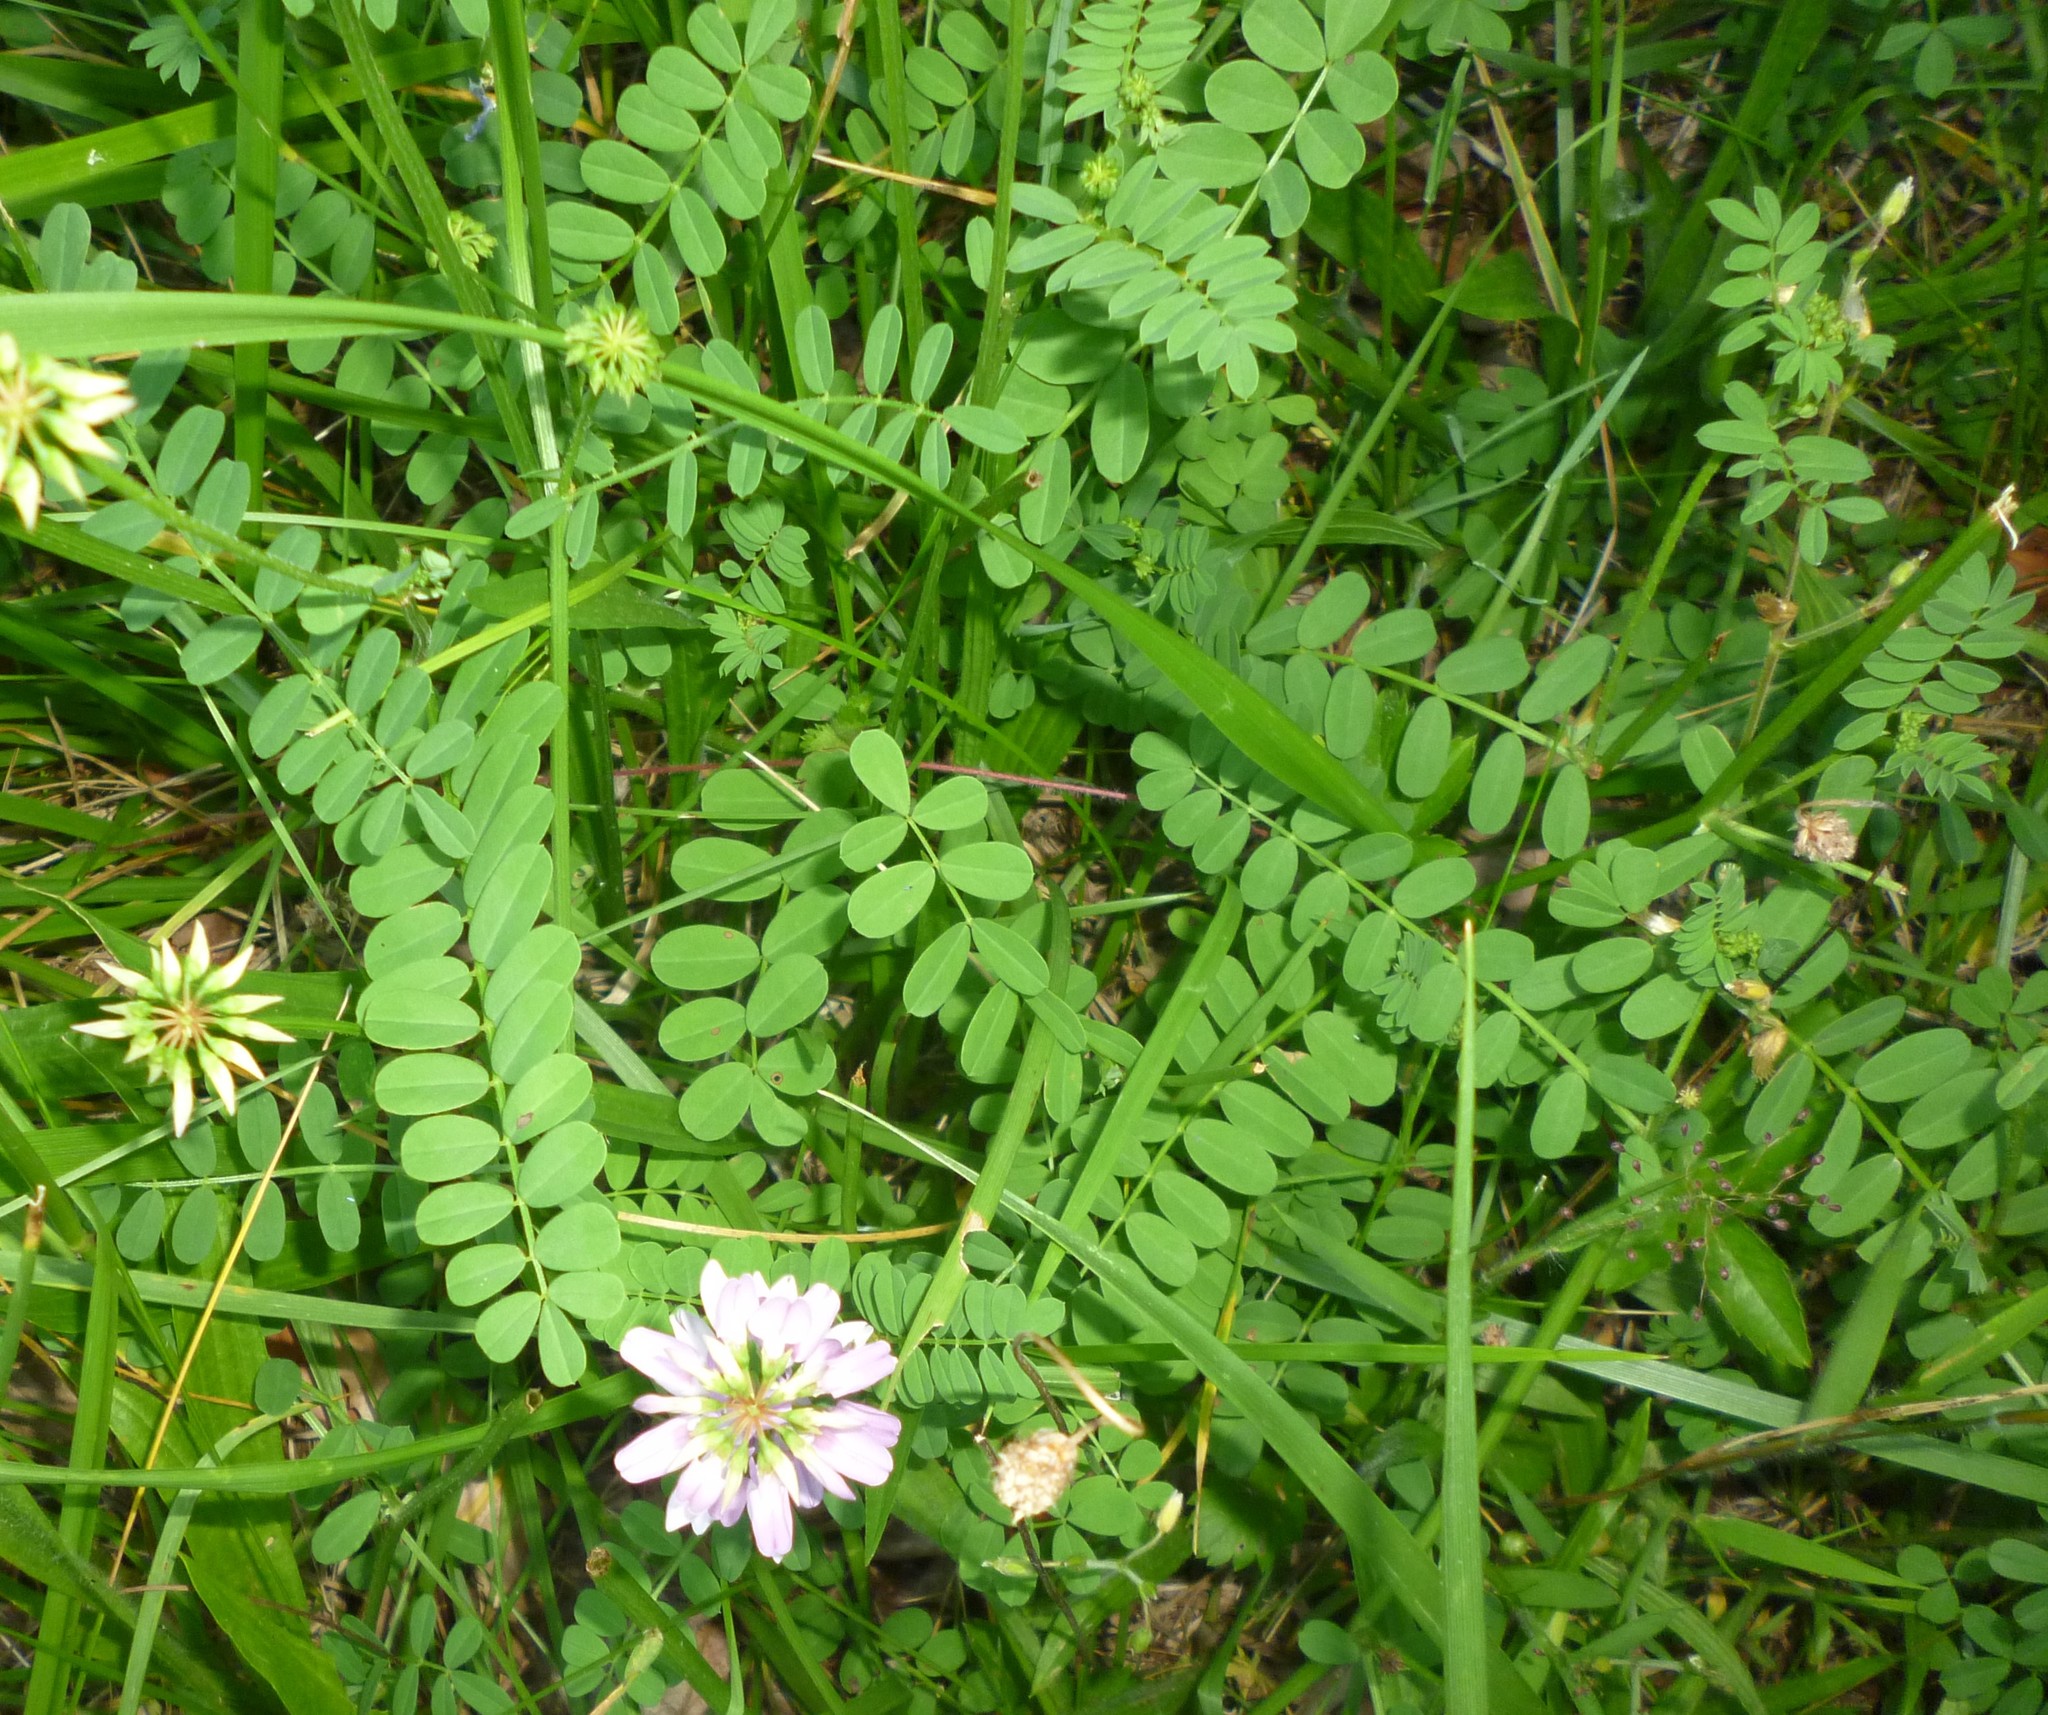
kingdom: Plantae
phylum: Tracheophyta
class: Magnoliopsida
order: Fabales
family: Fabaceae
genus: Coronilla
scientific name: Coronilla varia
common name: Crownvetch
